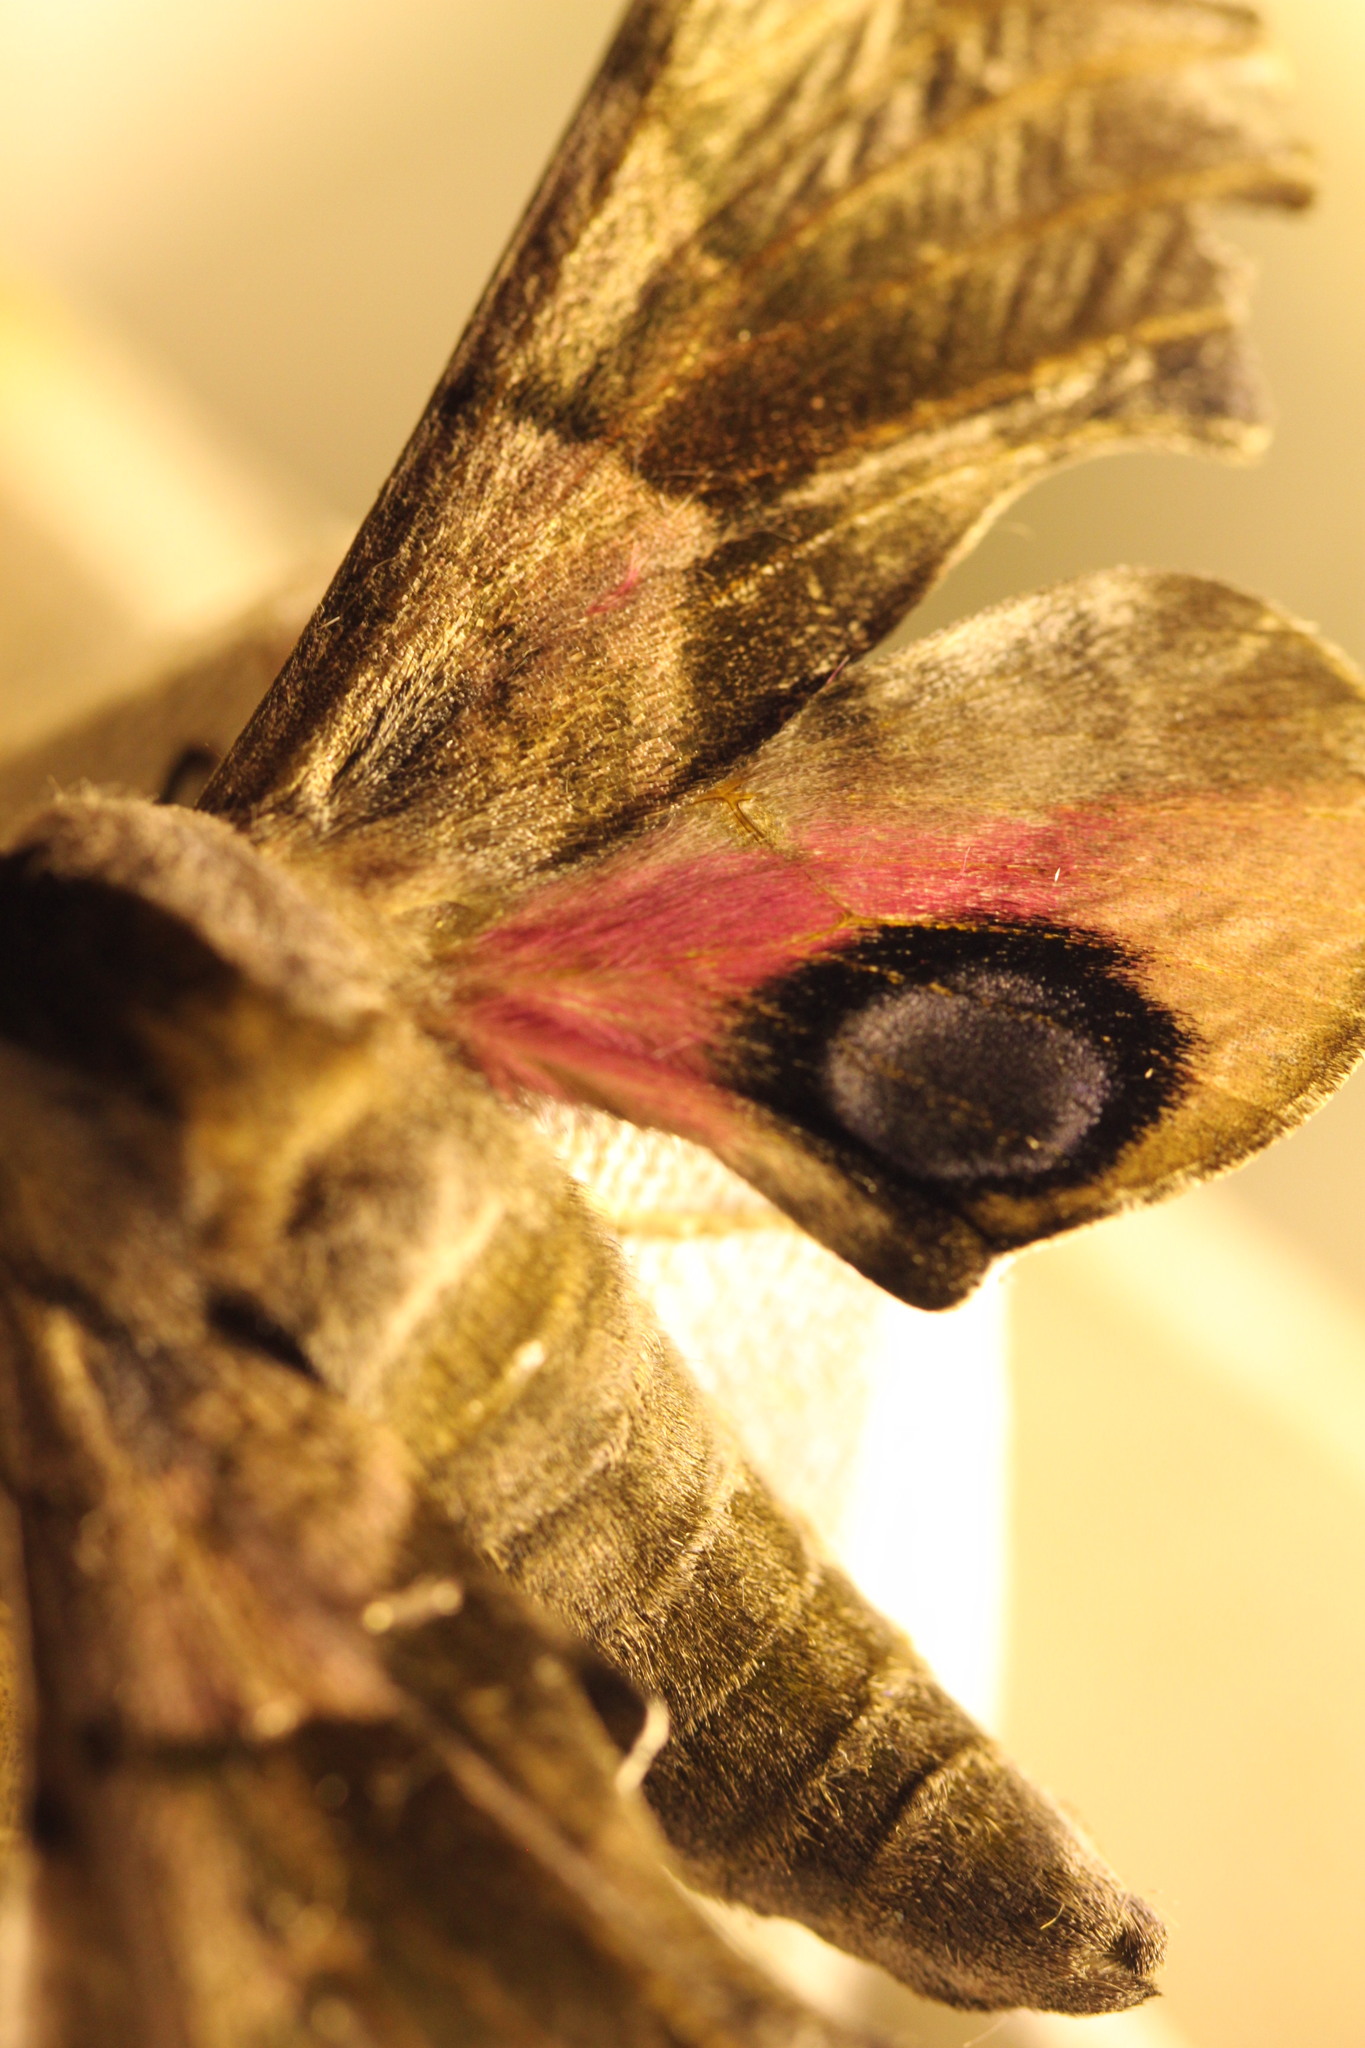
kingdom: Animalia
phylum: Arthropoda
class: Insecta
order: Lepidoptera
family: Sphingidae
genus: Smerinthus
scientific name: Smerinthus ocellata
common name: Eyed hawk-moth
